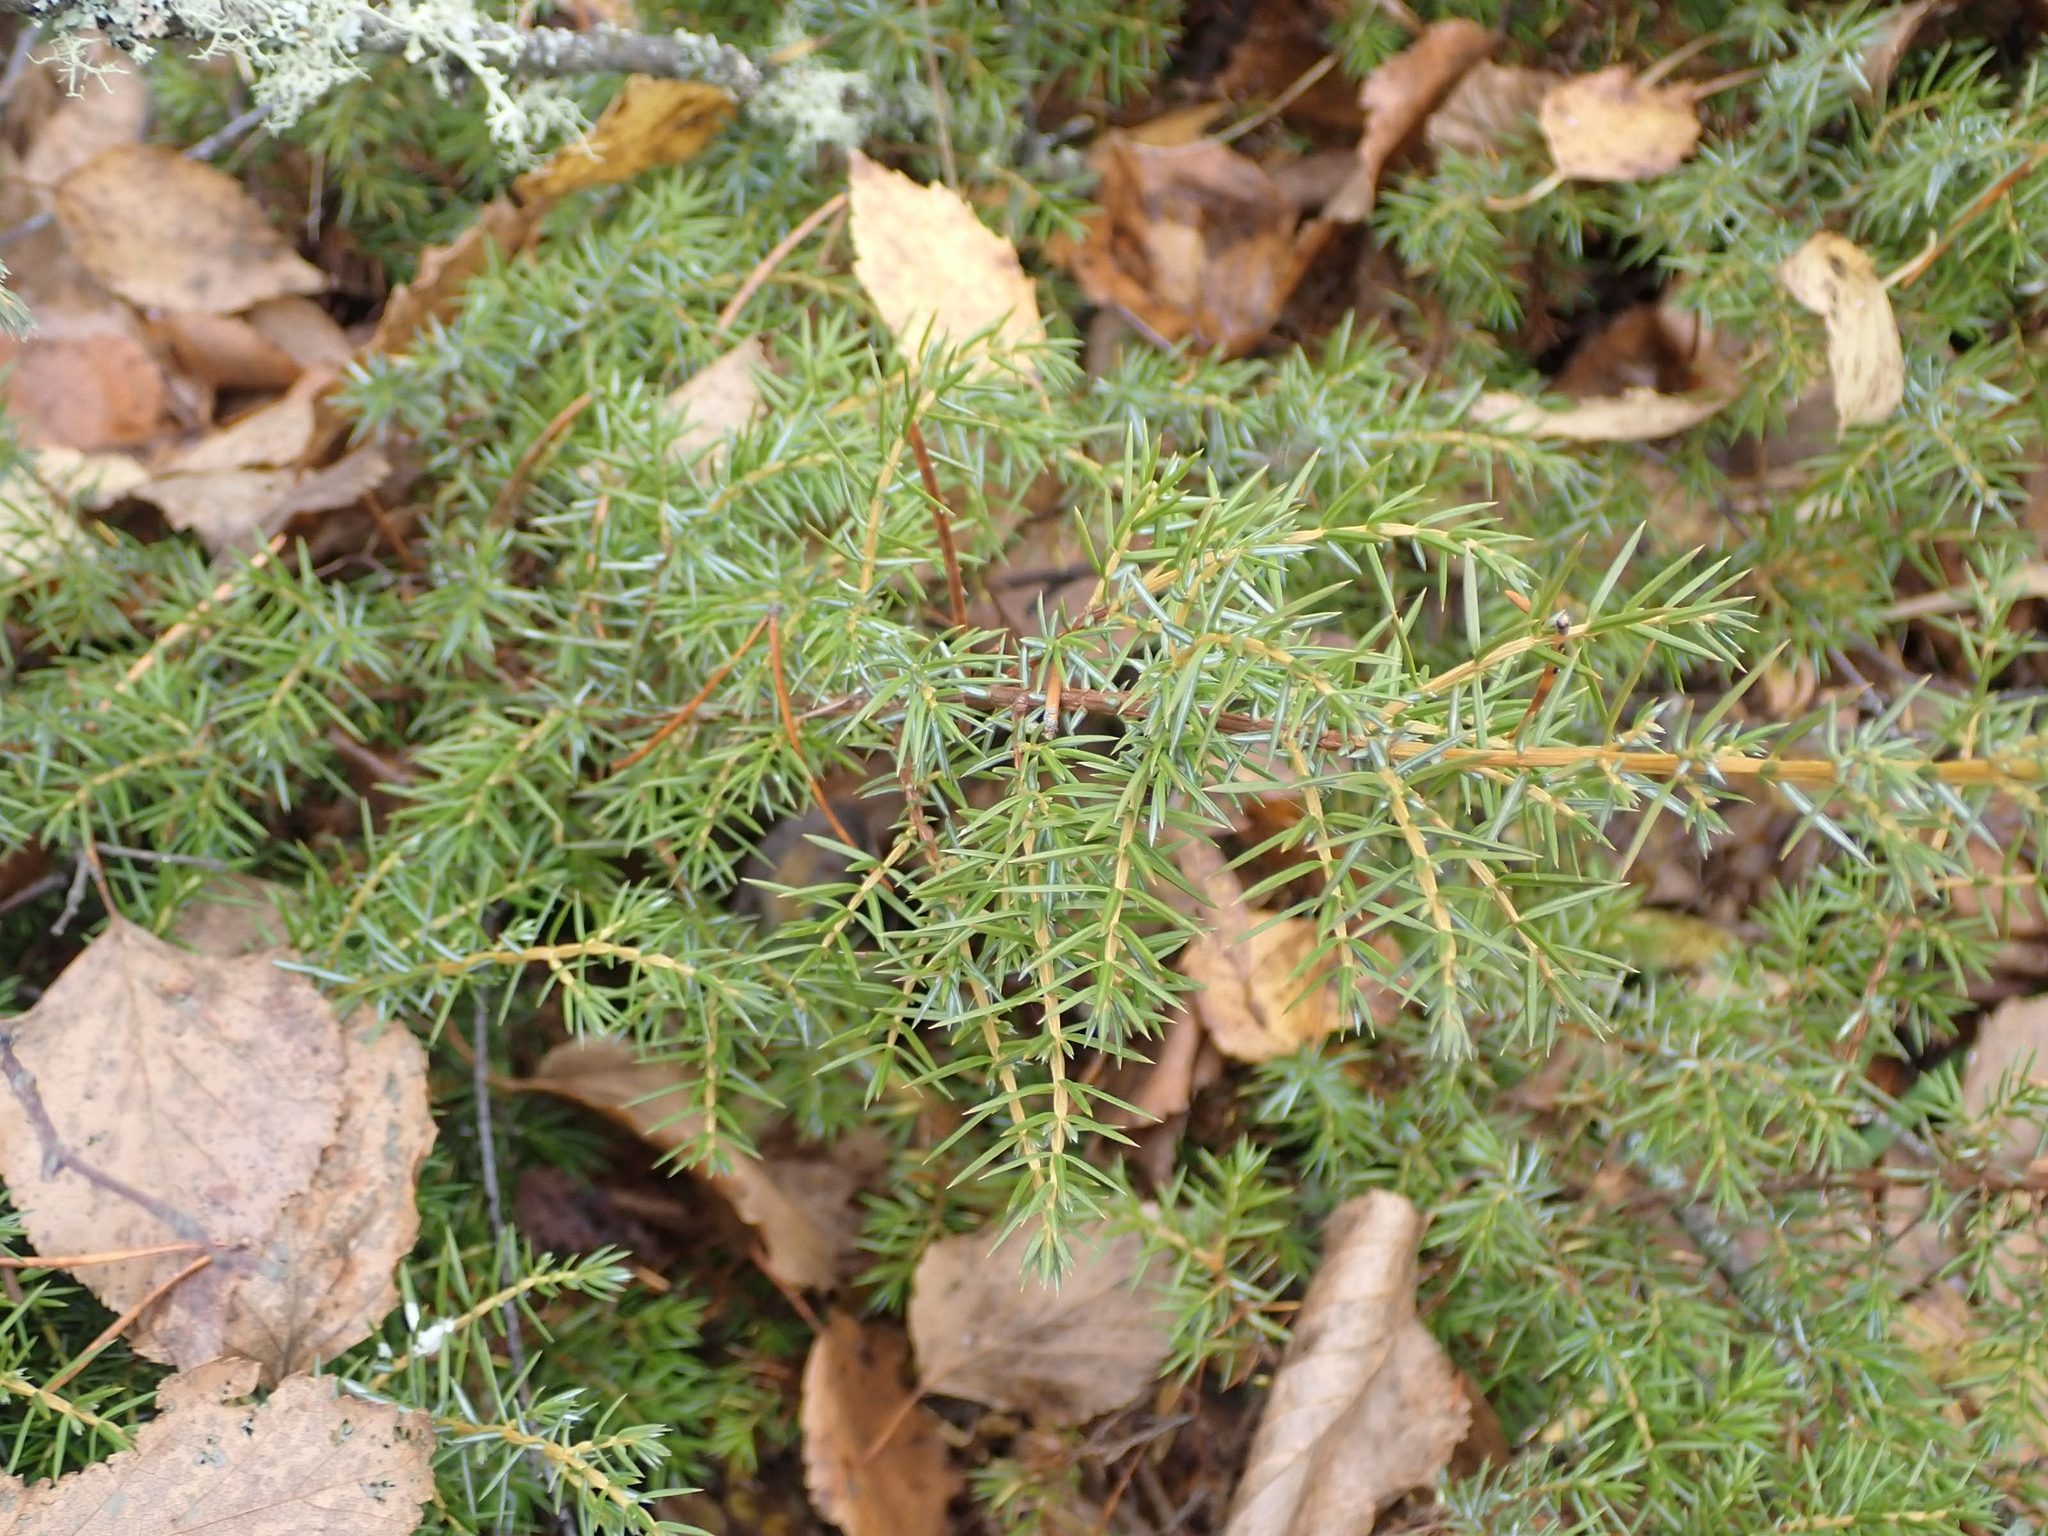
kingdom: Plantae
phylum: Tracheophyta
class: Pinopsida
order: Pinales
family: Cupressaceae
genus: Juniperus
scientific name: Juniperus communis
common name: Common juniper
